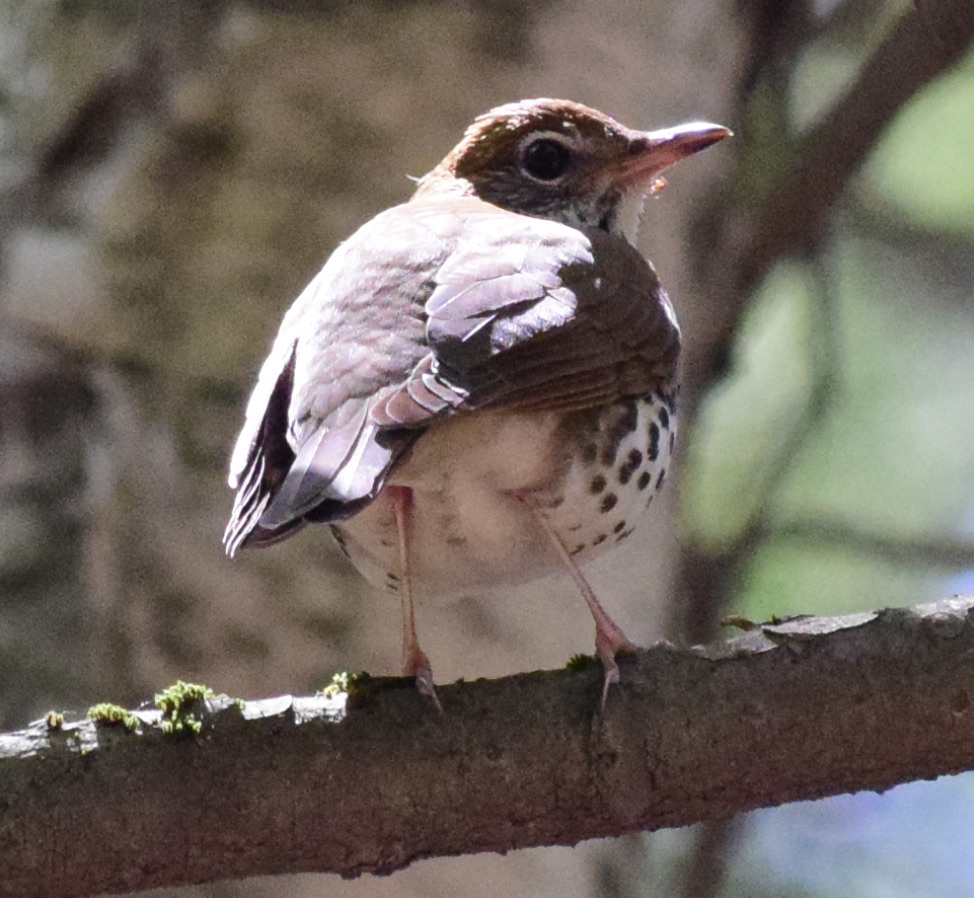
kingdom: Animalia
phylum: Chordata
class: Aves
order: Passeriformes
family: Turdidae
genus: Hylocichla
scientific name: Hylocichla mustelina
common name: Wood thrush
